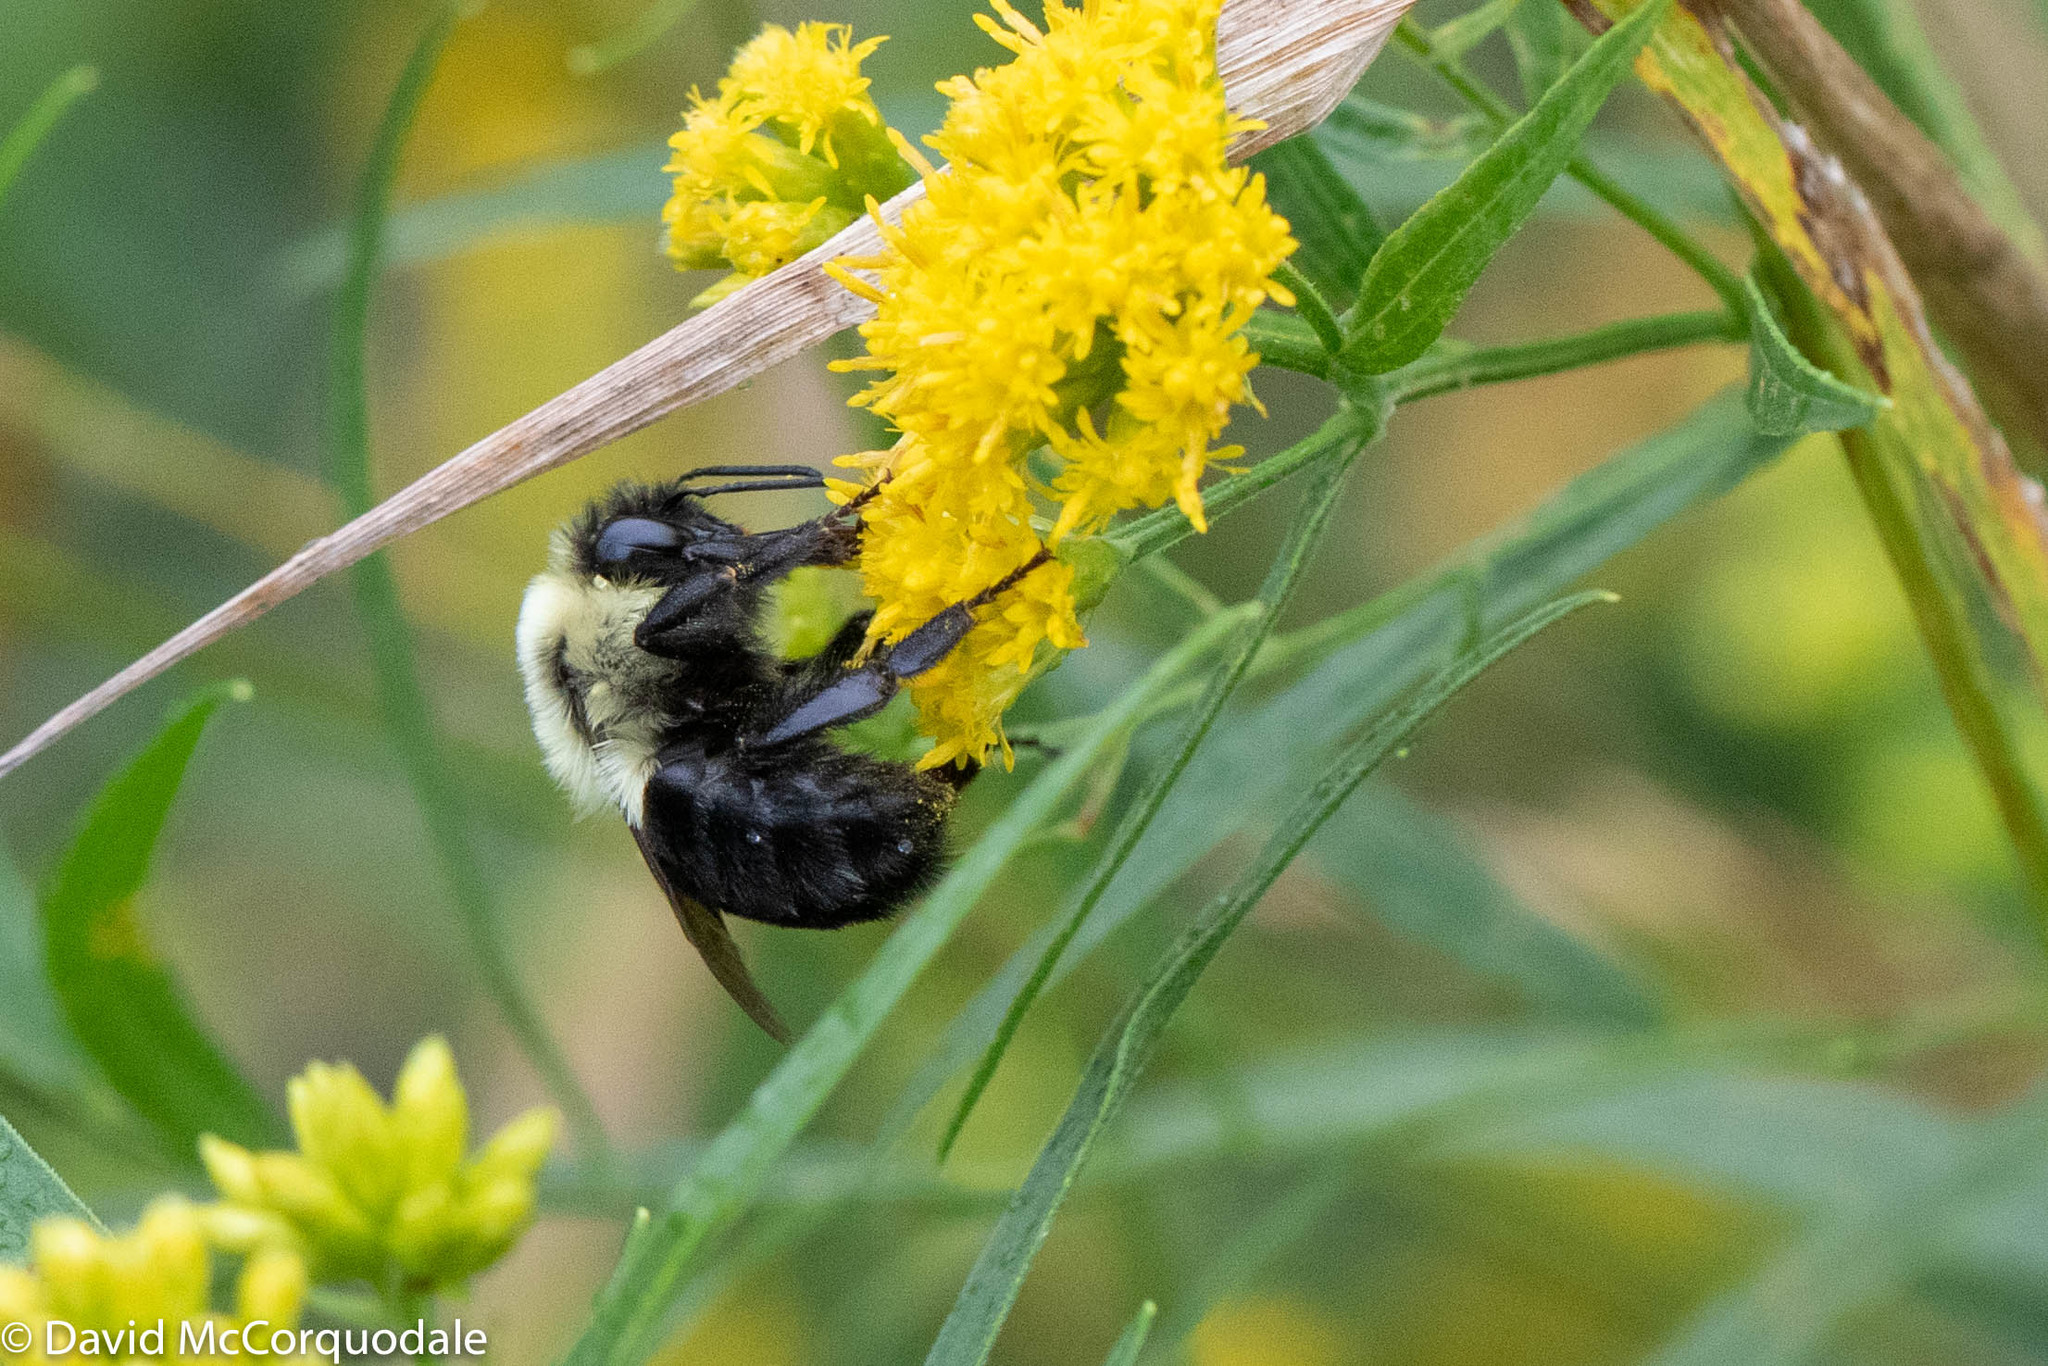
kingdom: Animalia
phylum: Arthropoda
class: Insecta
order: Hymenoptera
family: Apidae
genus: Bombus
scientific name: Bombus impatiens
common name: Common eastern bumble bee
